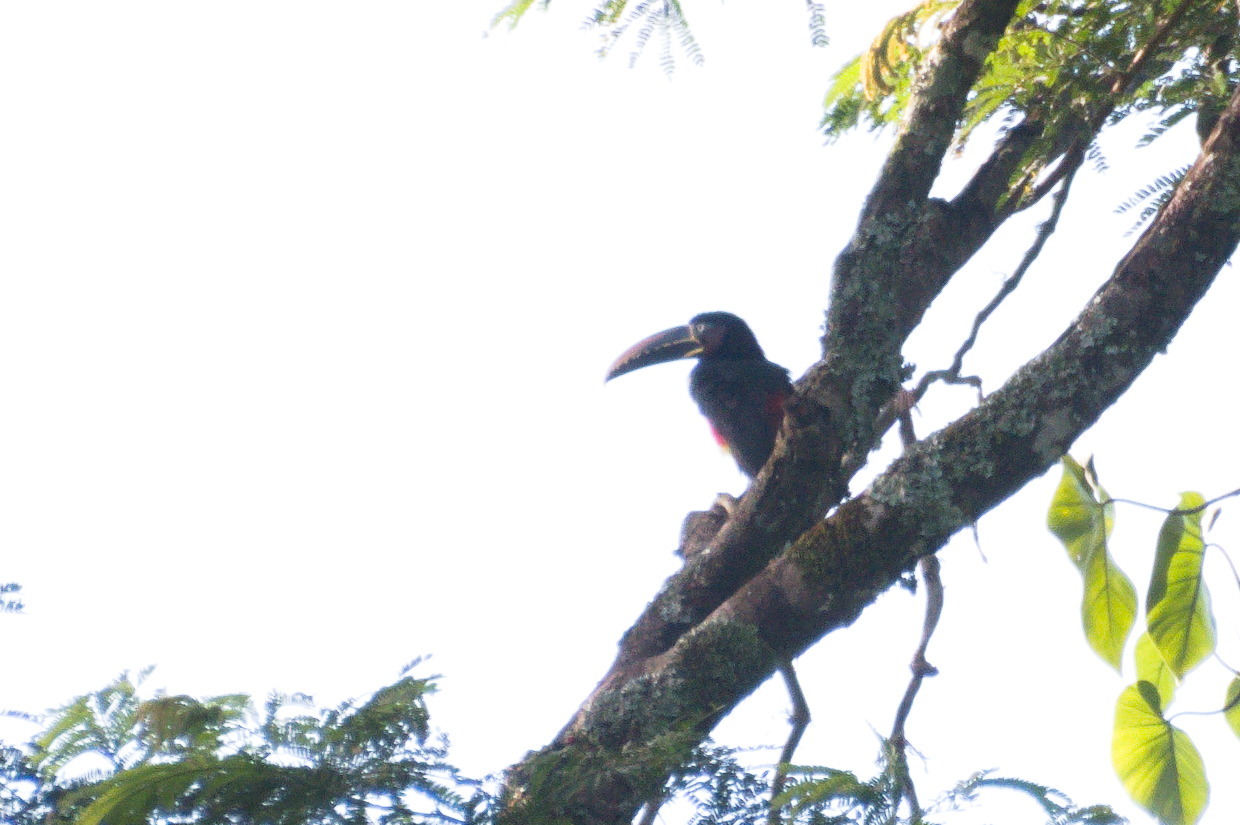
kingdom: Animalia
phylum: Chordata
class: Aves
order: Piciformes
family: Ramphastidae
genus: Pteroglossus
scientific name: Pteroglossus castanotis
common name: Chestnut-eared aracari
